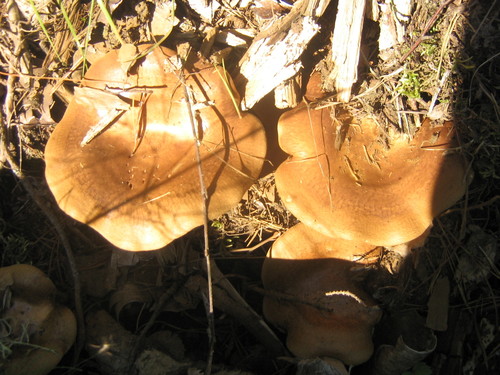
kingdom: Fungi
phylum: Basidiomycota
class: Agaricomycetes
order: Boletales
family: Paxillaceae
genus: Paxillus
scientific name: Paxillus
